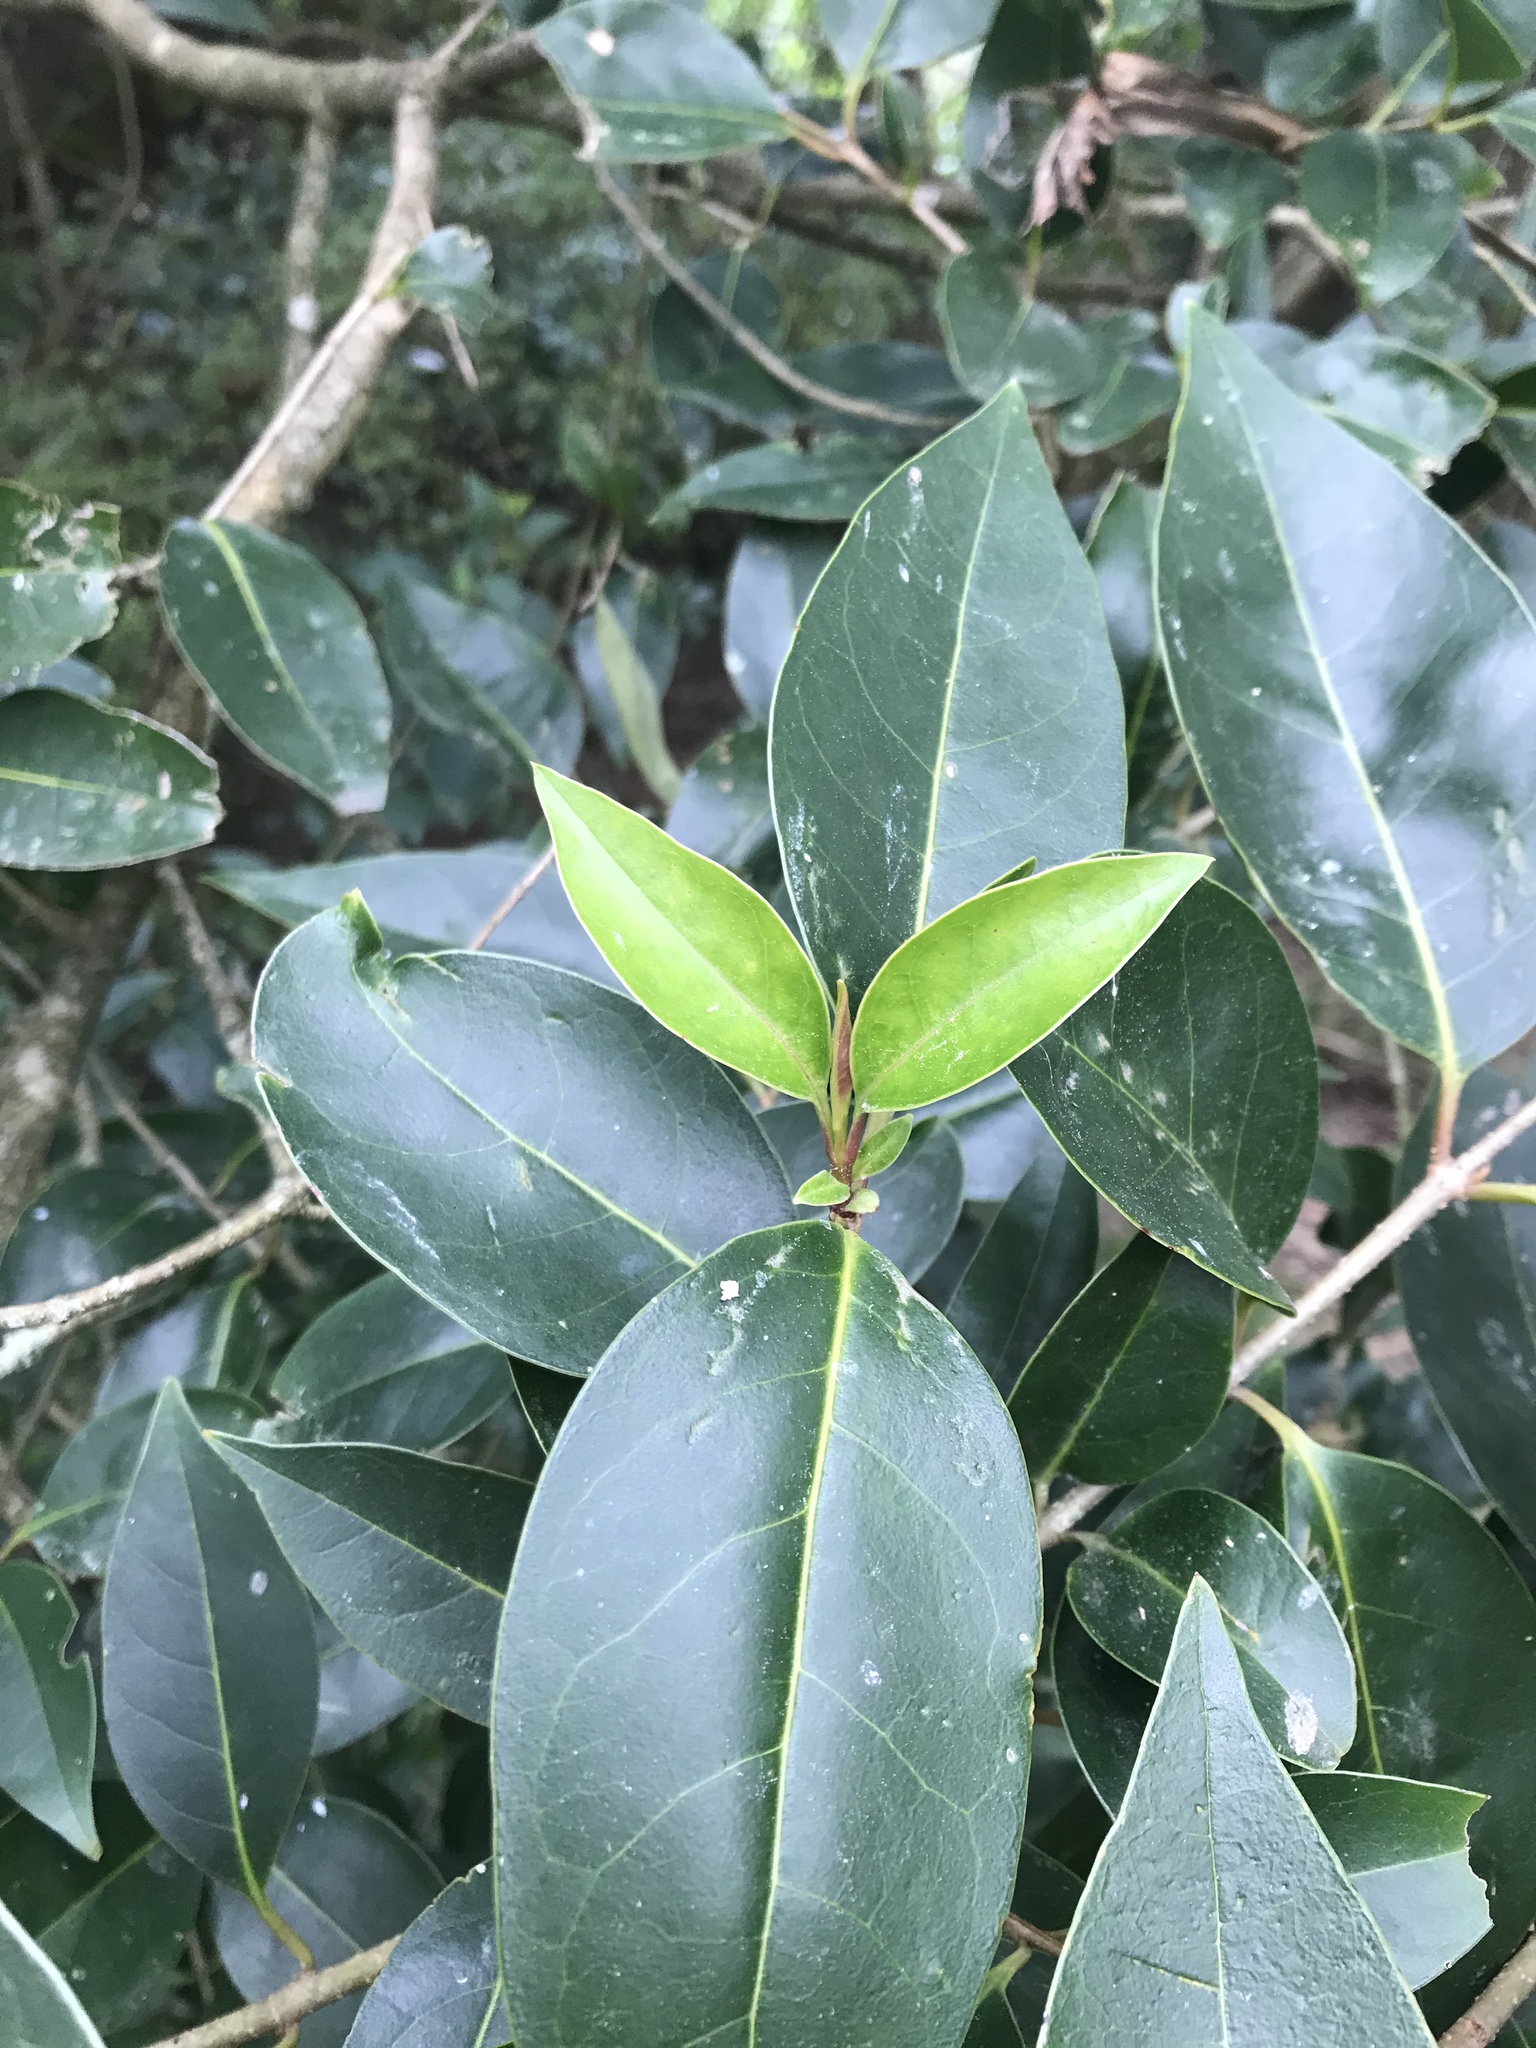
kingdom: Plantae
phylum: Tracheophyta
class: Magnoliopsida
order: Lamiales
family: Oleaceae
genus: Ligustrum
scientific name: Ligustrum lucidum
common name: Glossy privet
